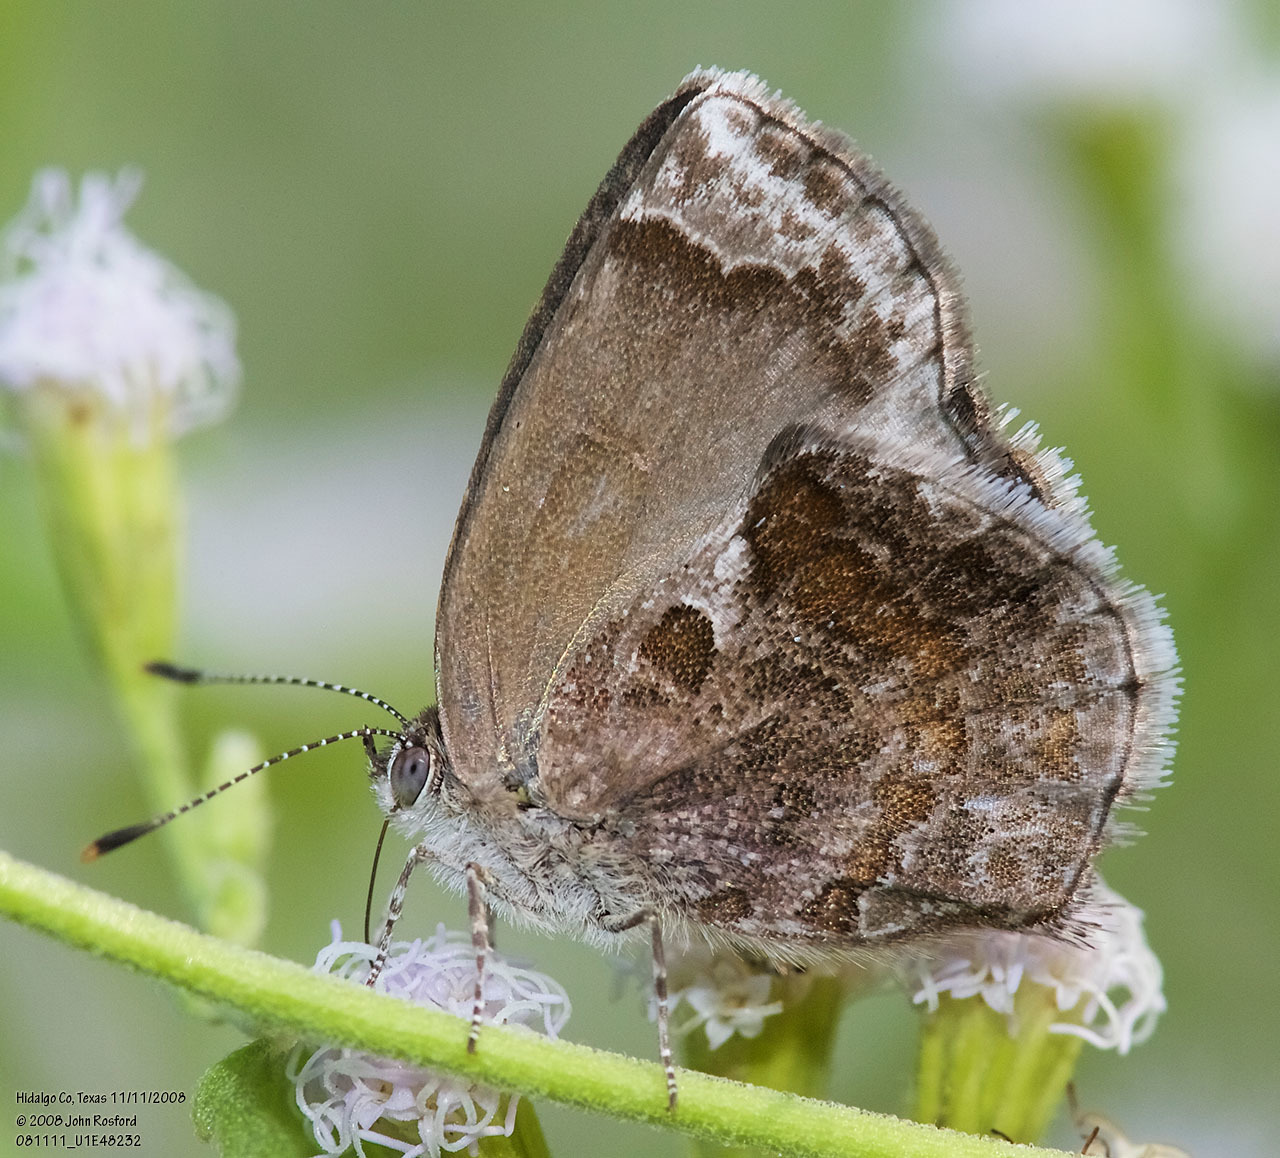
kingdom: Animalia
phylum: Arthropoda
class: Insecta
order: Lepidoptera
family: Lycaenidae
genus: Strymon
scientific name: Strymon bazochii
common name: Lantana scrub-hairstreak
